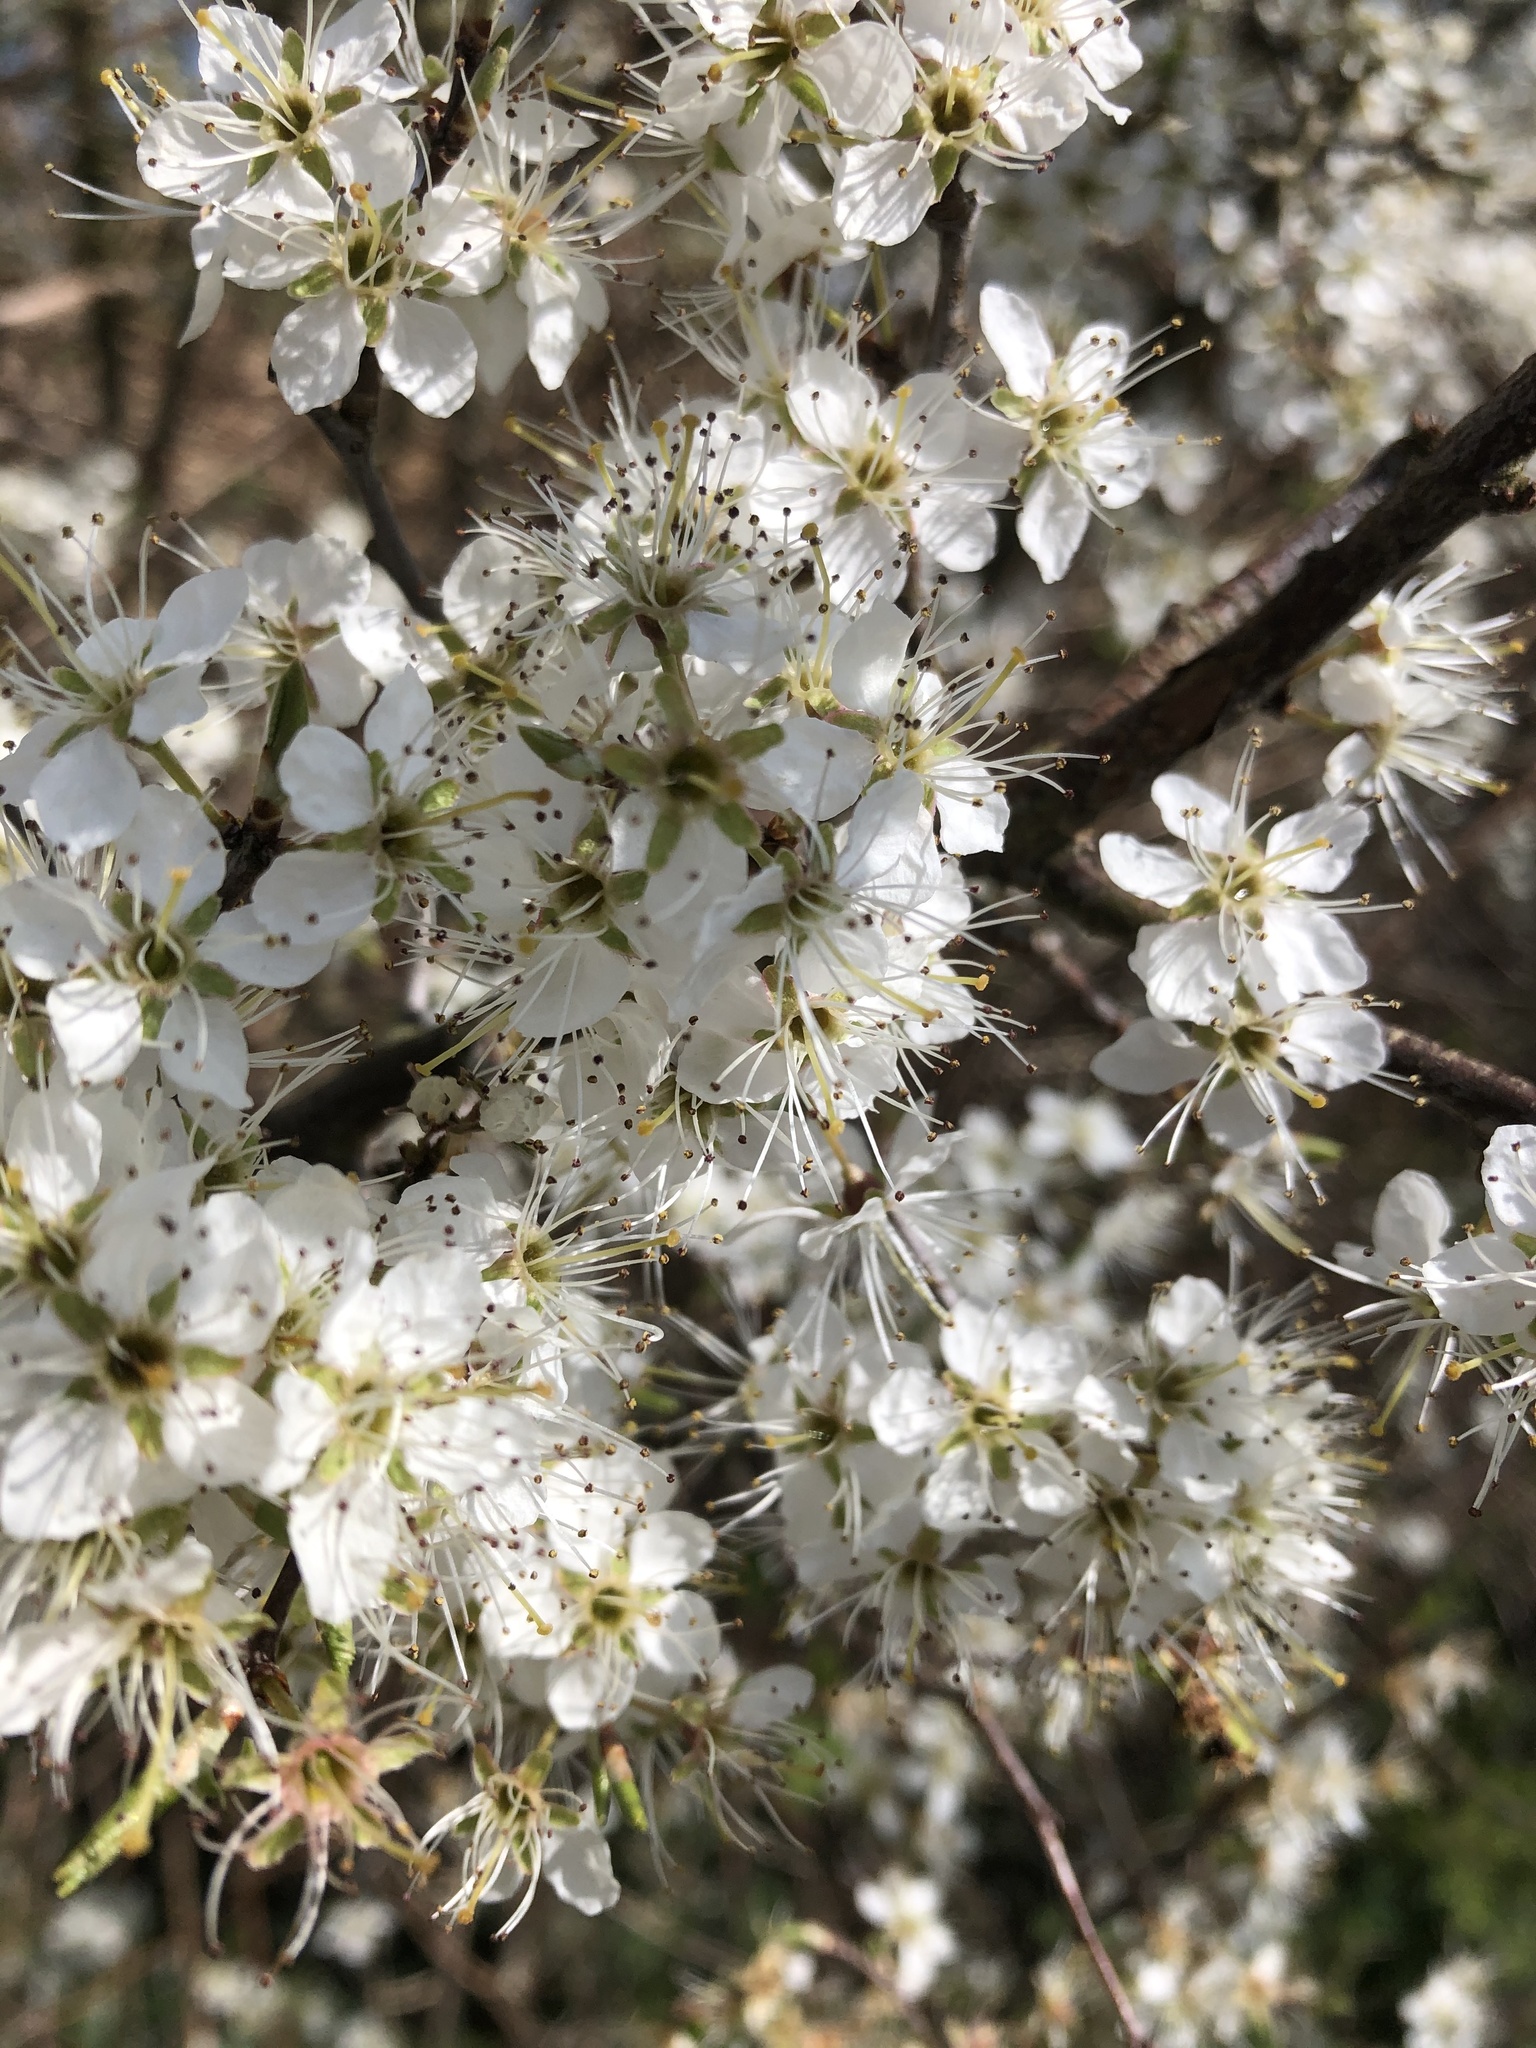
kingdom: Plantae
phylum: Tracheophyta
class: Magnoliopsida
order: Rosales
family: Rosaceae
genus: Prunus
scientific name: Prunus spinosa
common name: Blackthorn
